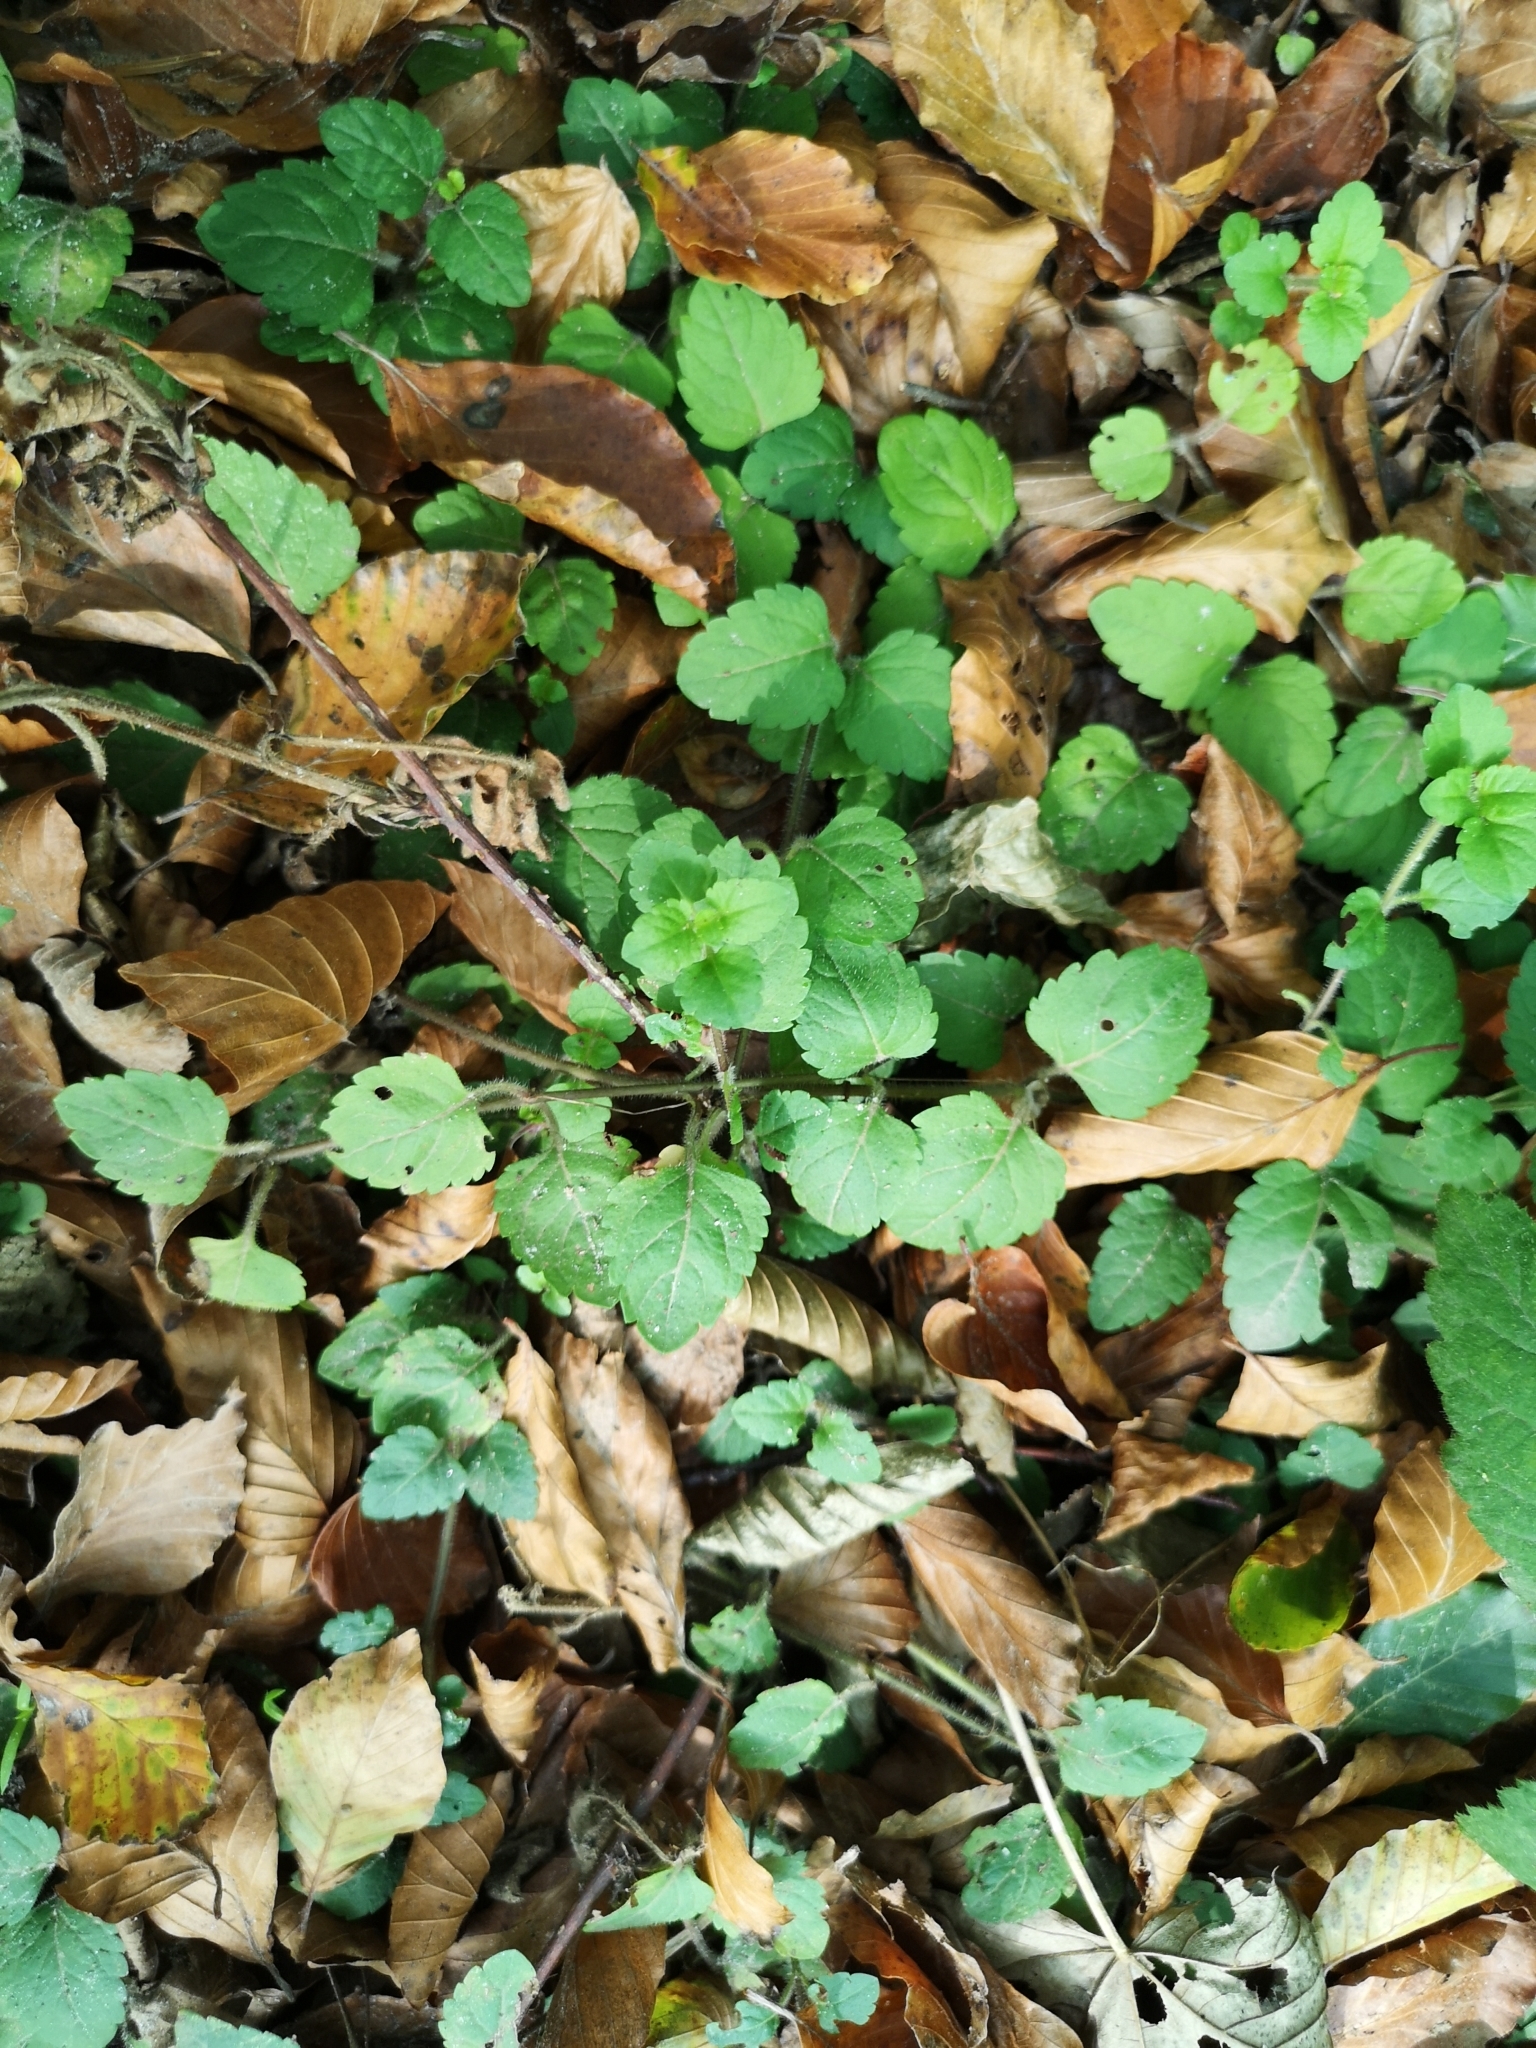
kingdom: Plantae
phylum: Tracheophyta
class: Magnoliopsida
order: Lamiales
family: Plantaginaceae
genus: Veronica
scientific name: Veronica montana
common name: Wood speedwell
